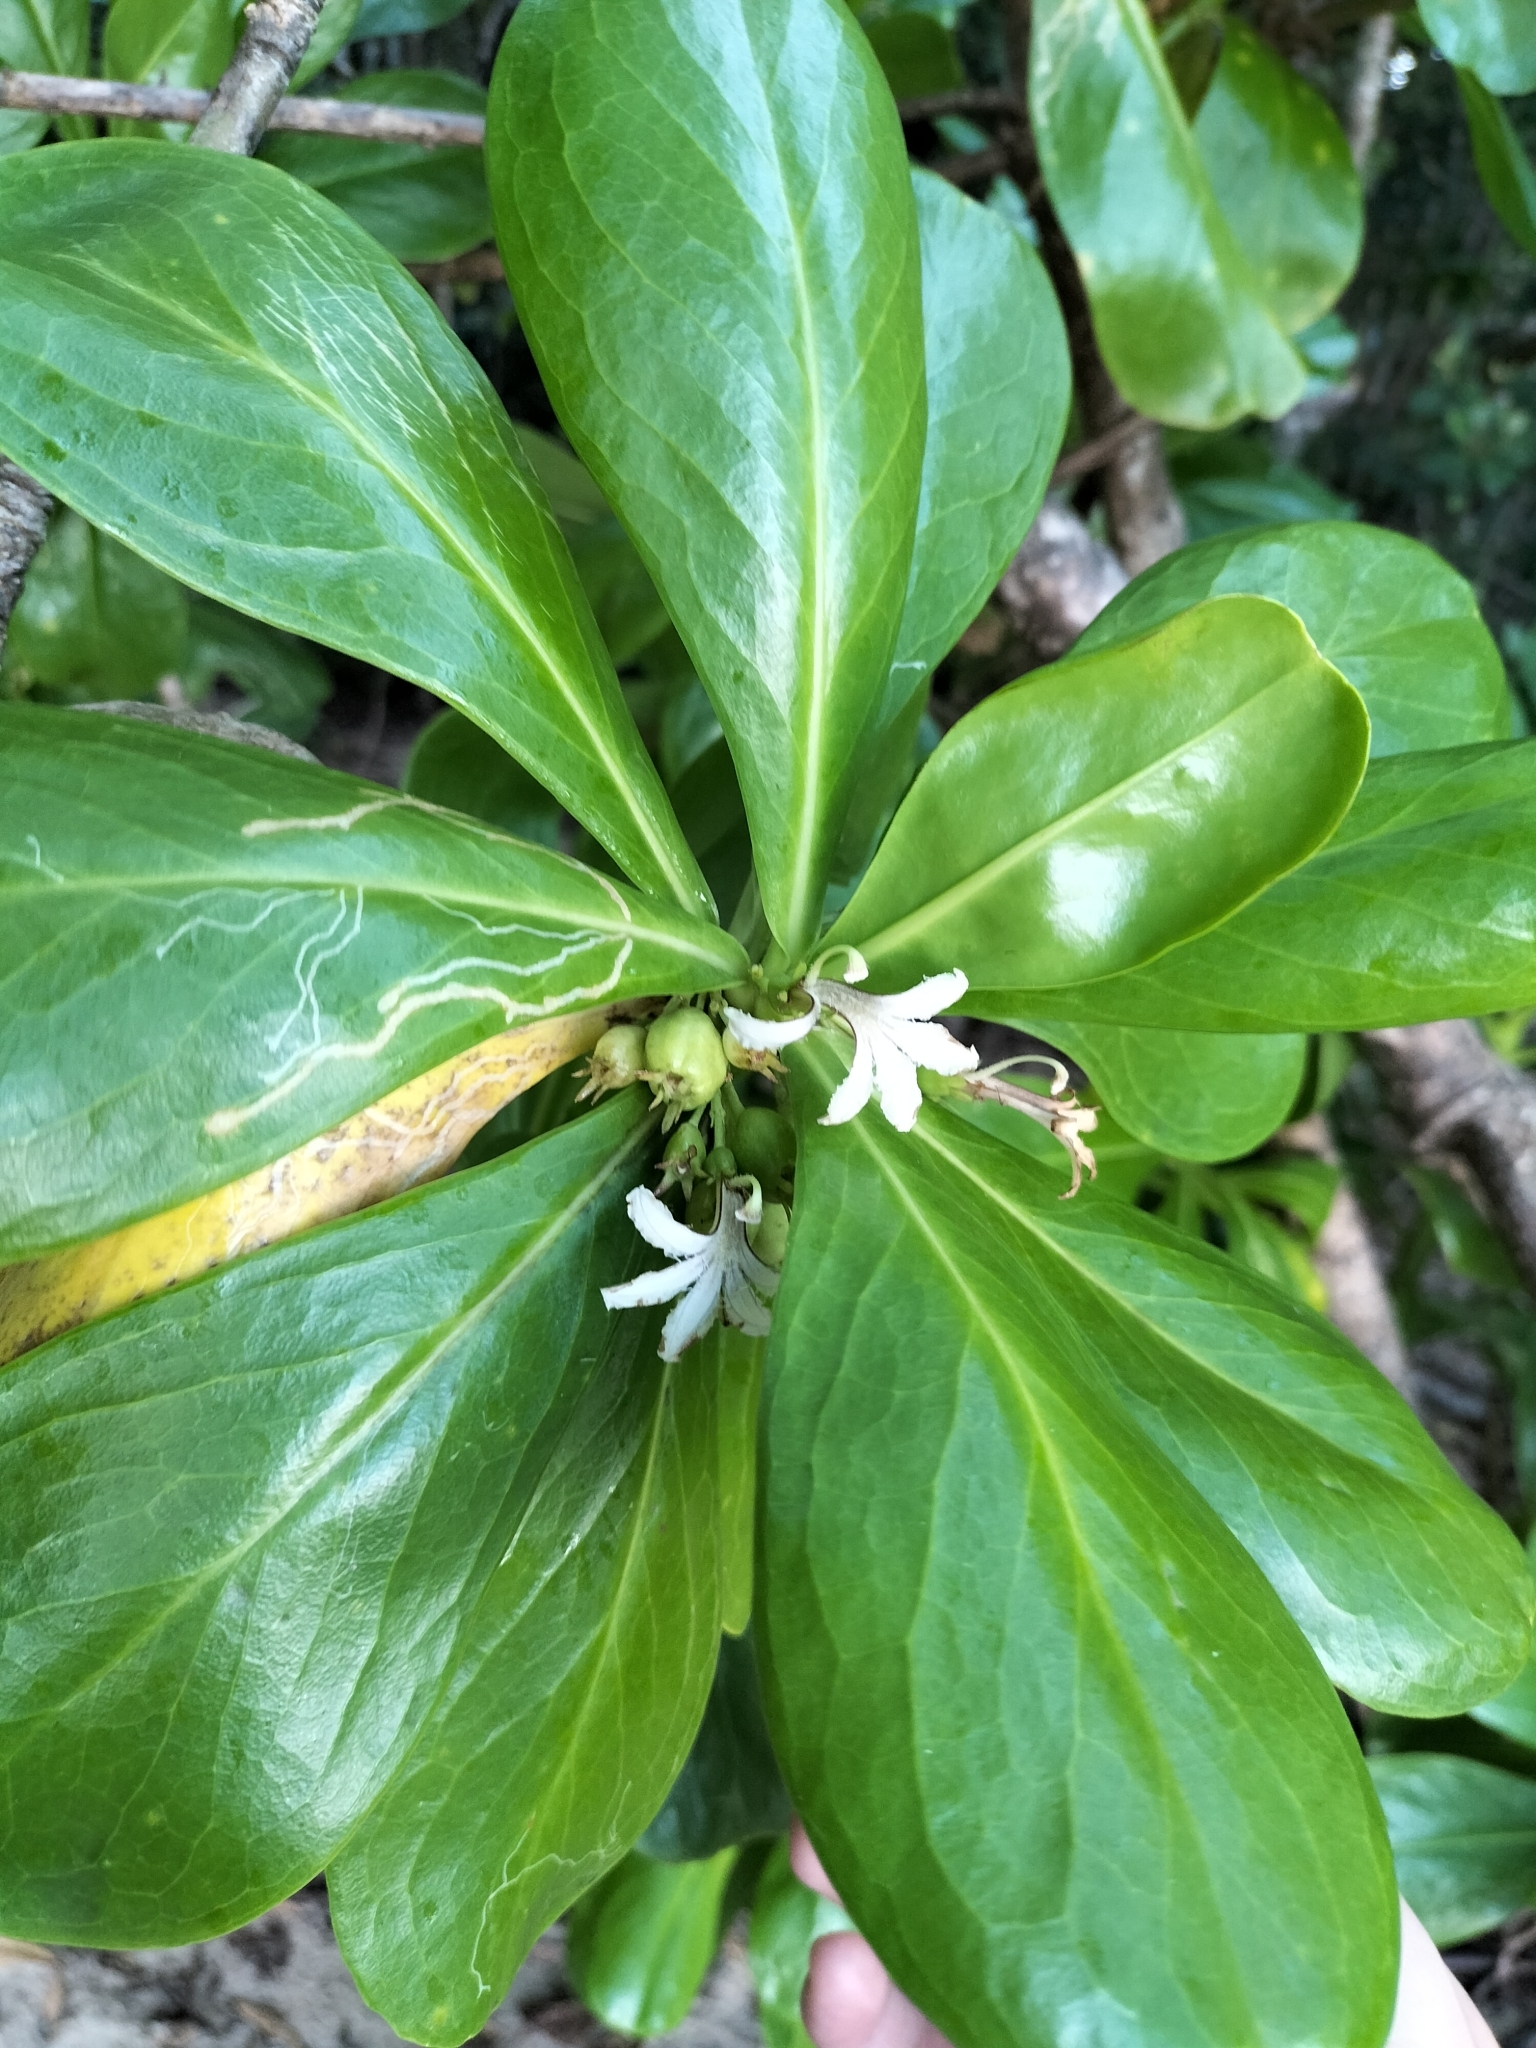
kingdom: Plantae
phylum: Tracheophyta
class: Magnoliopsida
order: Asterales
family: Goodeniaceae
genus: Scaevola
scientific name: Scaevola taccada
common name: Sea lettucetree
